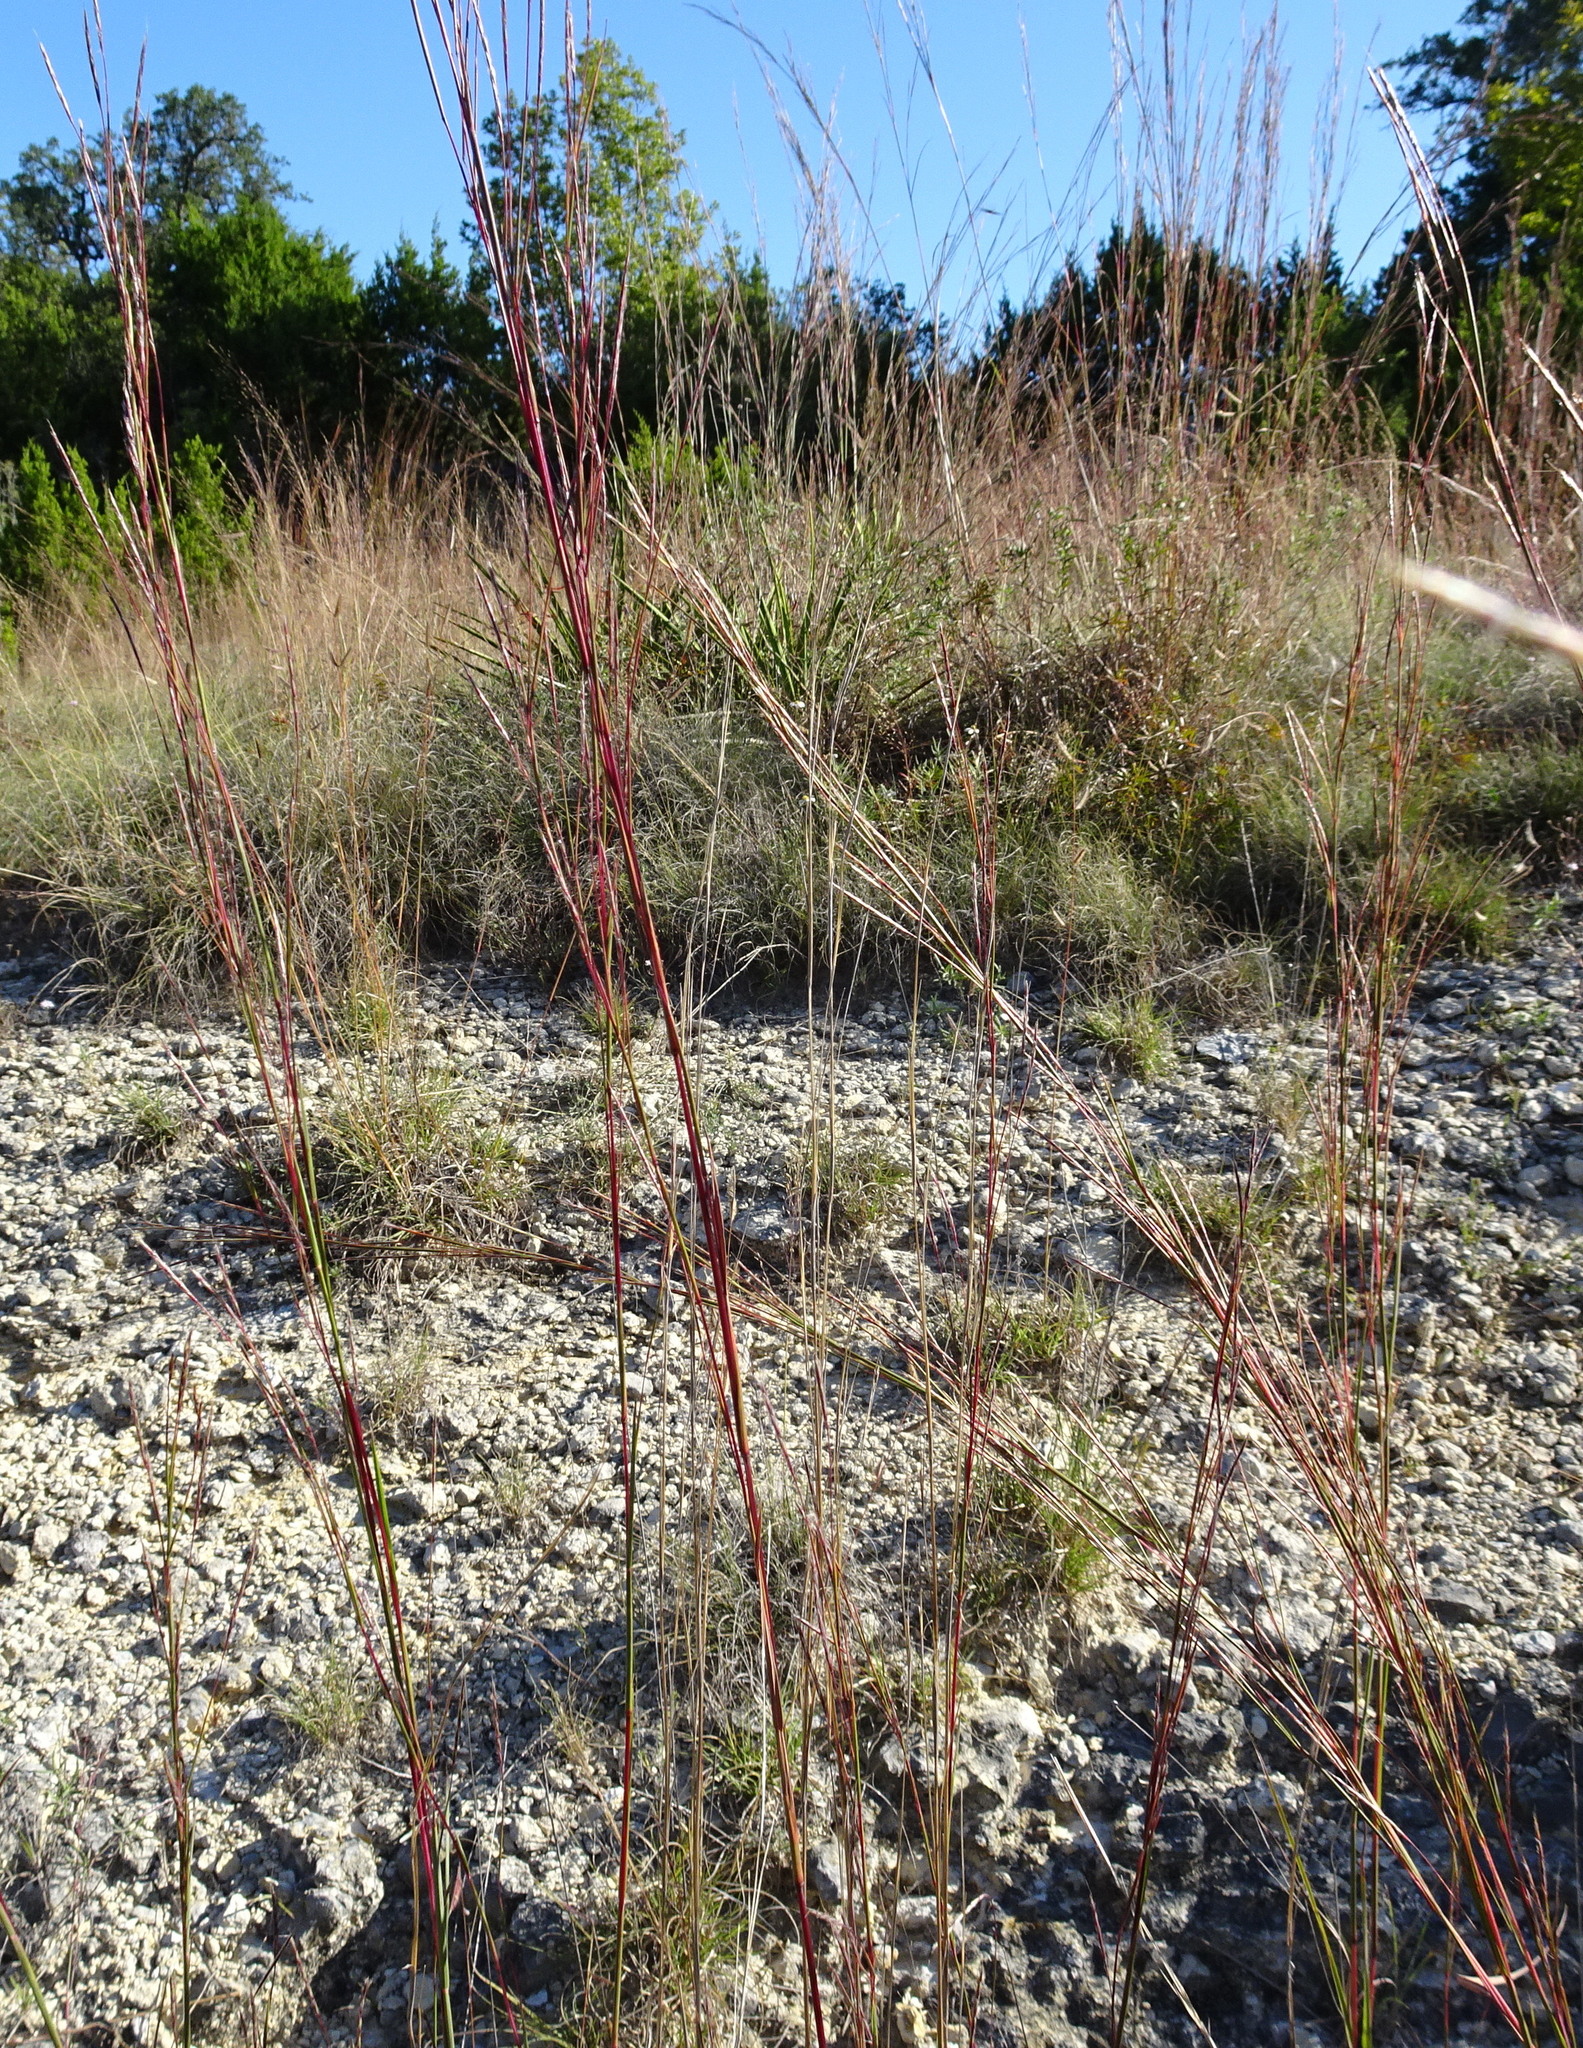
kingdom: Plantae
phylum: Tracheophyta
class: Liliopsida
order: Poales
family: Poaceae
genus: Schizachyrium
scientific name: Schizachyrium scoparium
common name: Little bluestem
